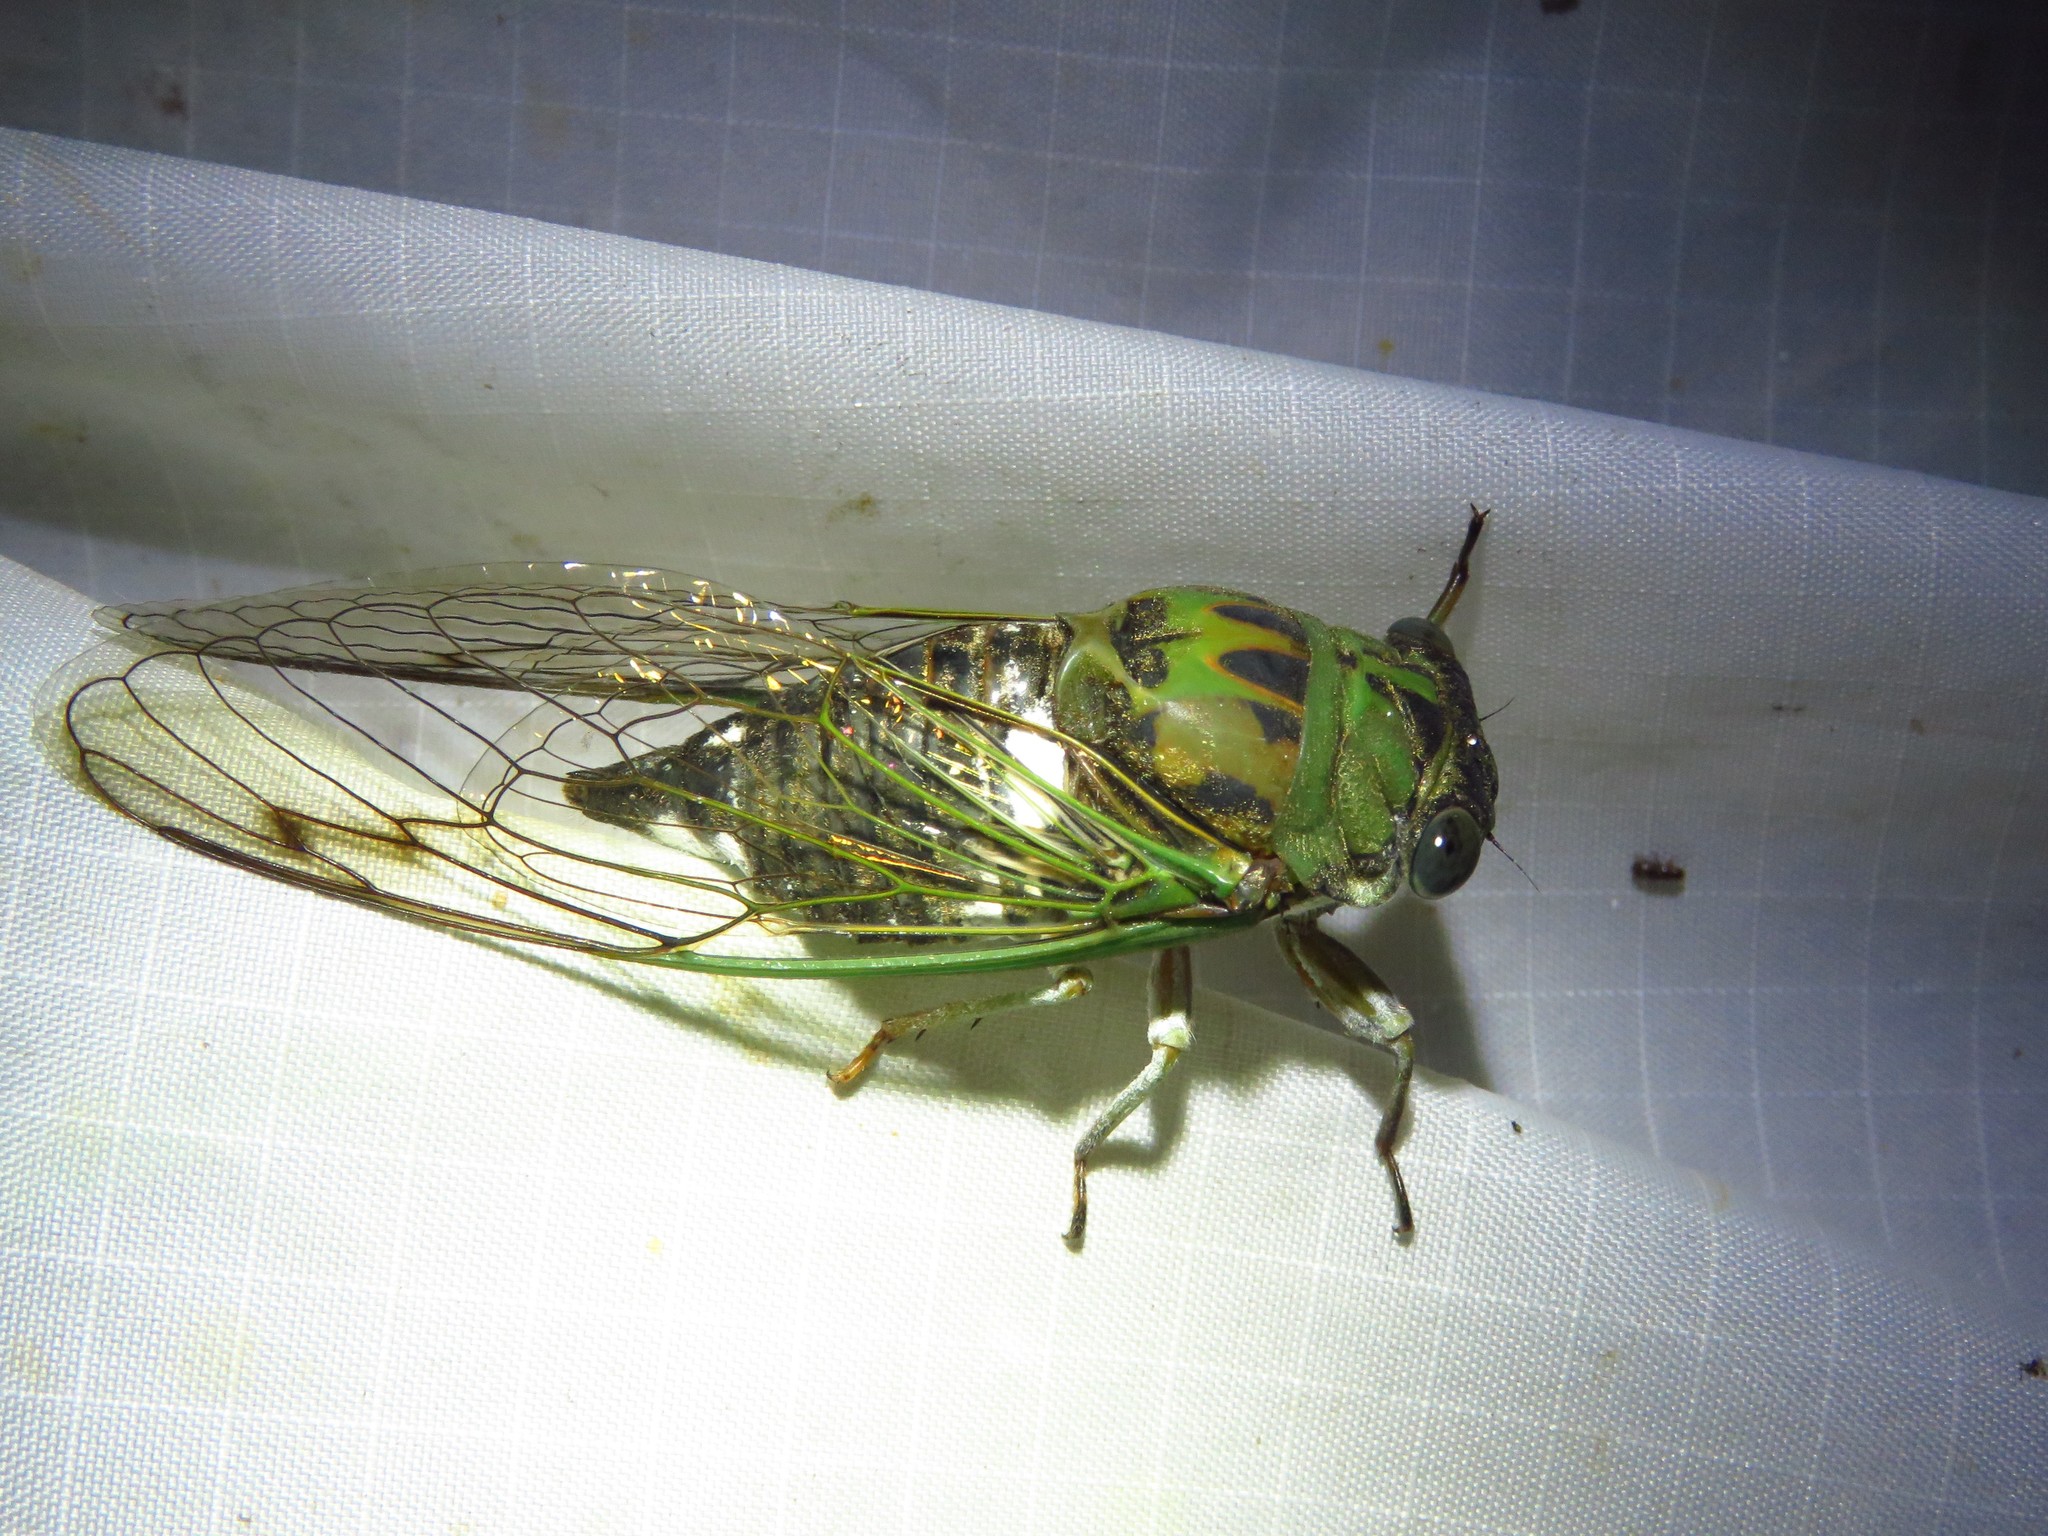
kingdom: Animalia
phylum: Arthropoda
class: Insecta
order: Hemiptera
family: Cicadidae
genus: Neotibicen
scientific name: Neotibicen pruinosus
